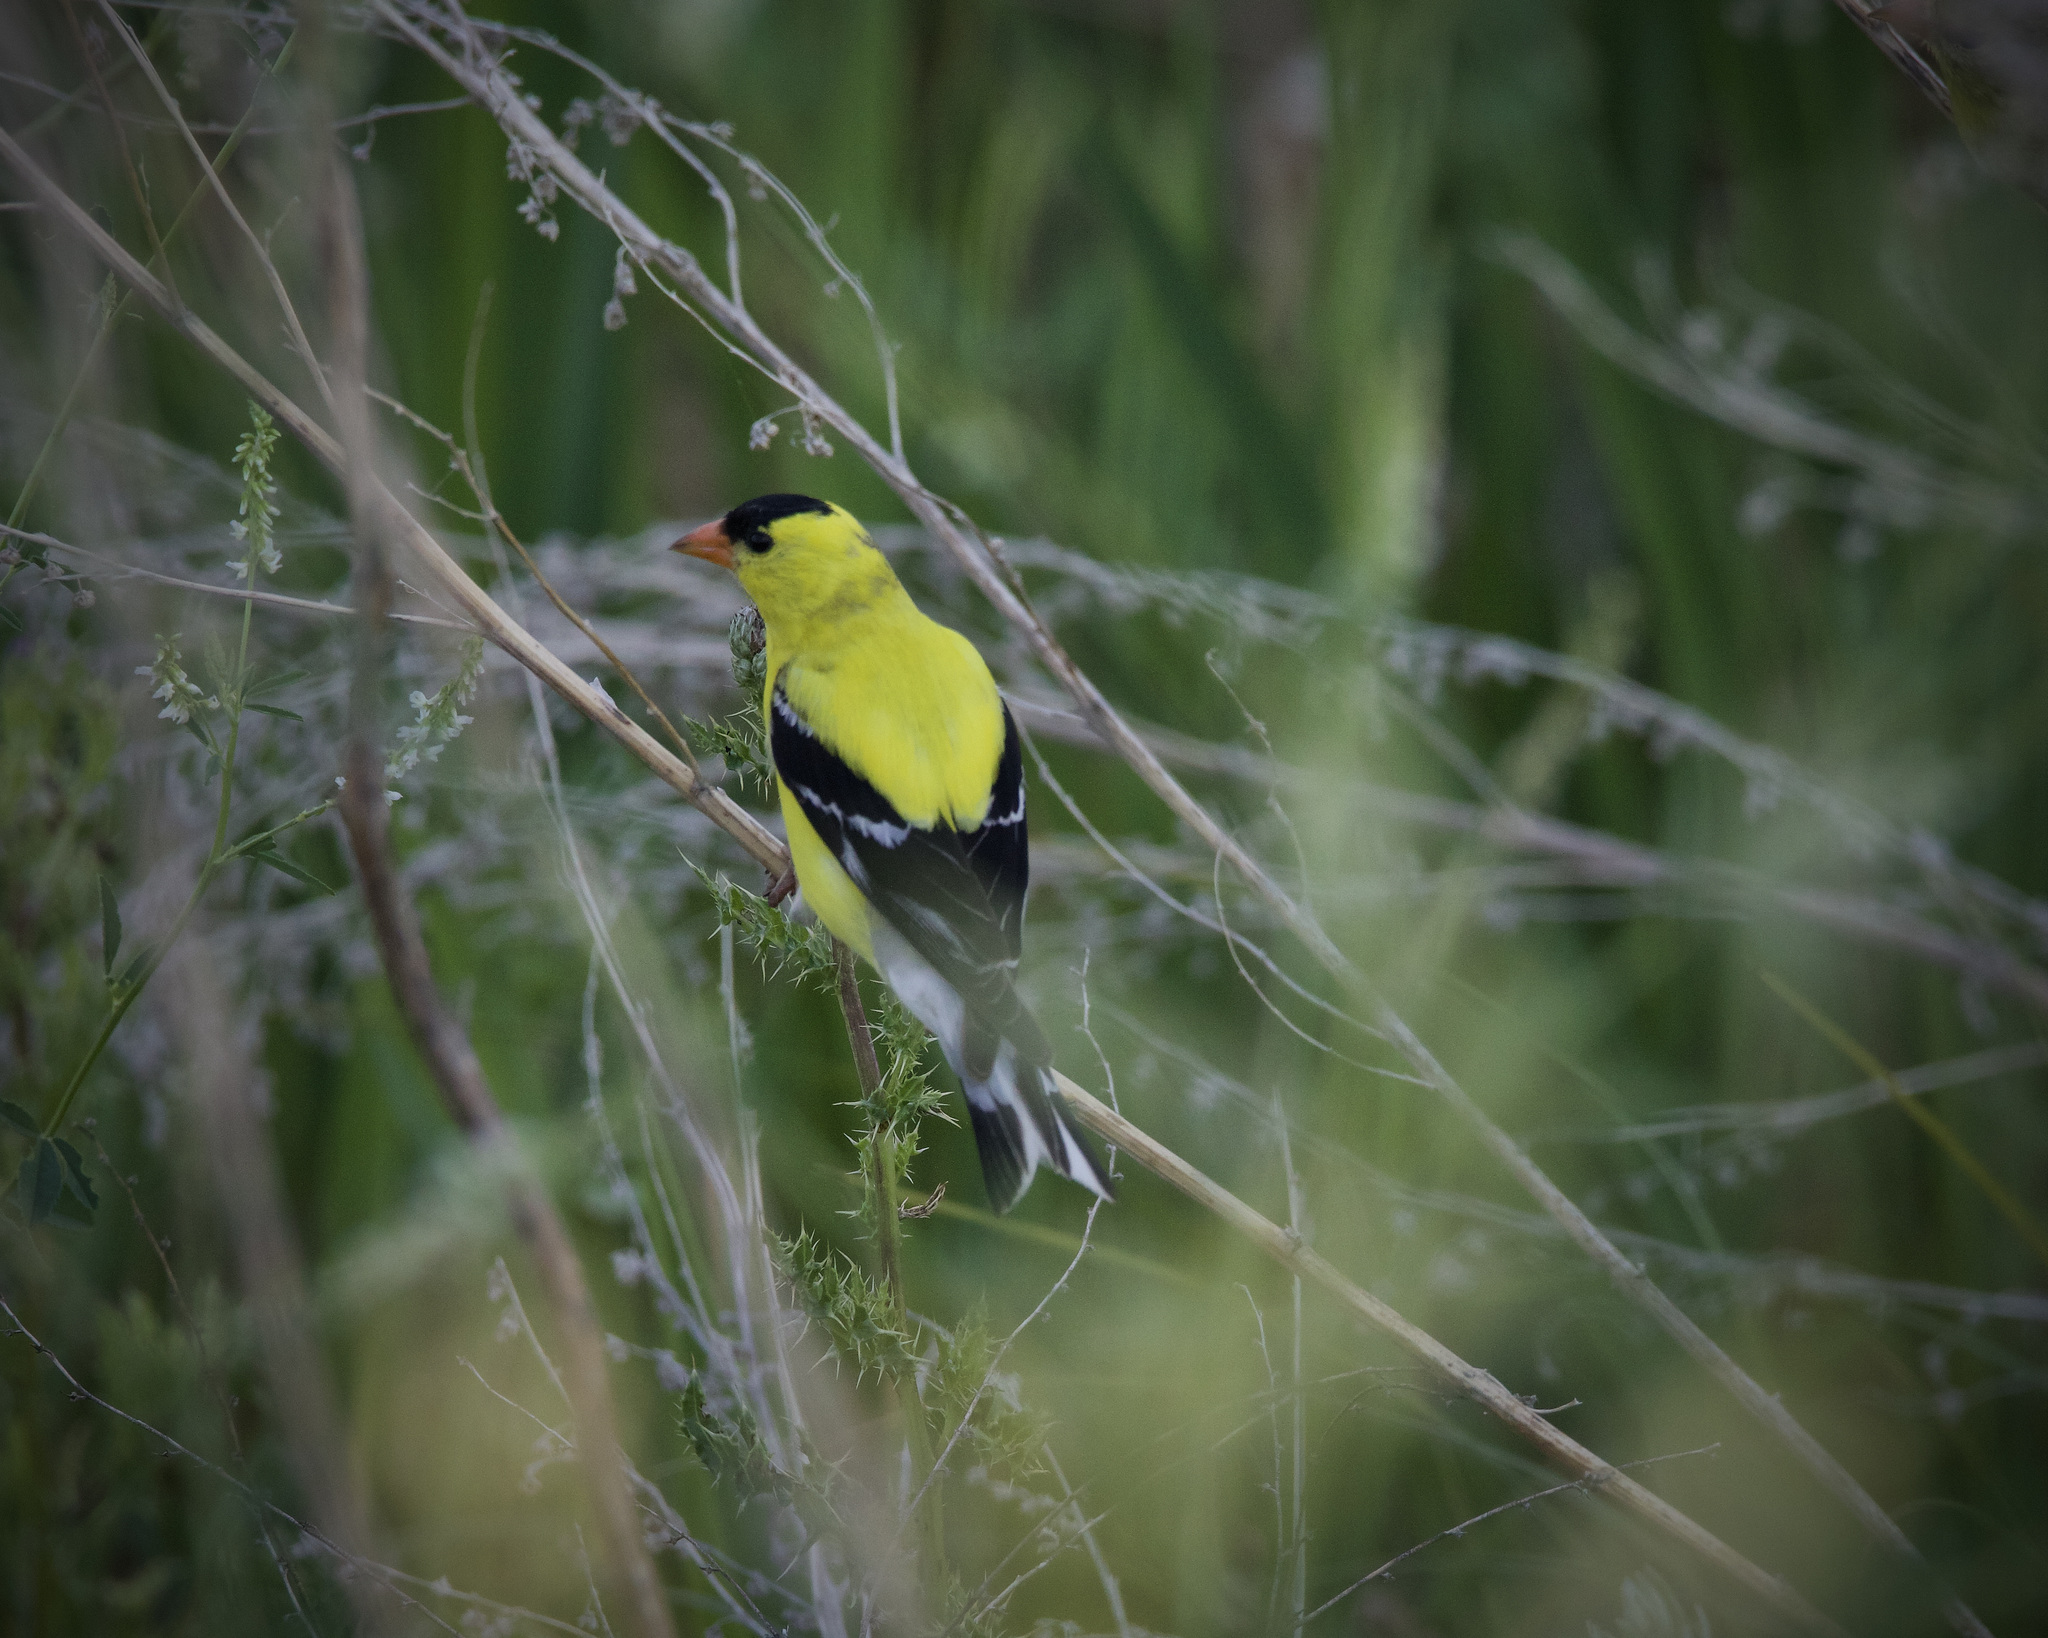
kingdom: Animalia
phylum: Chordata
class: Aves
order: Passeriformes
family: Fringillidae
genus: Spinus
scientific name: Spinus tristis
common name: American goldfinch
